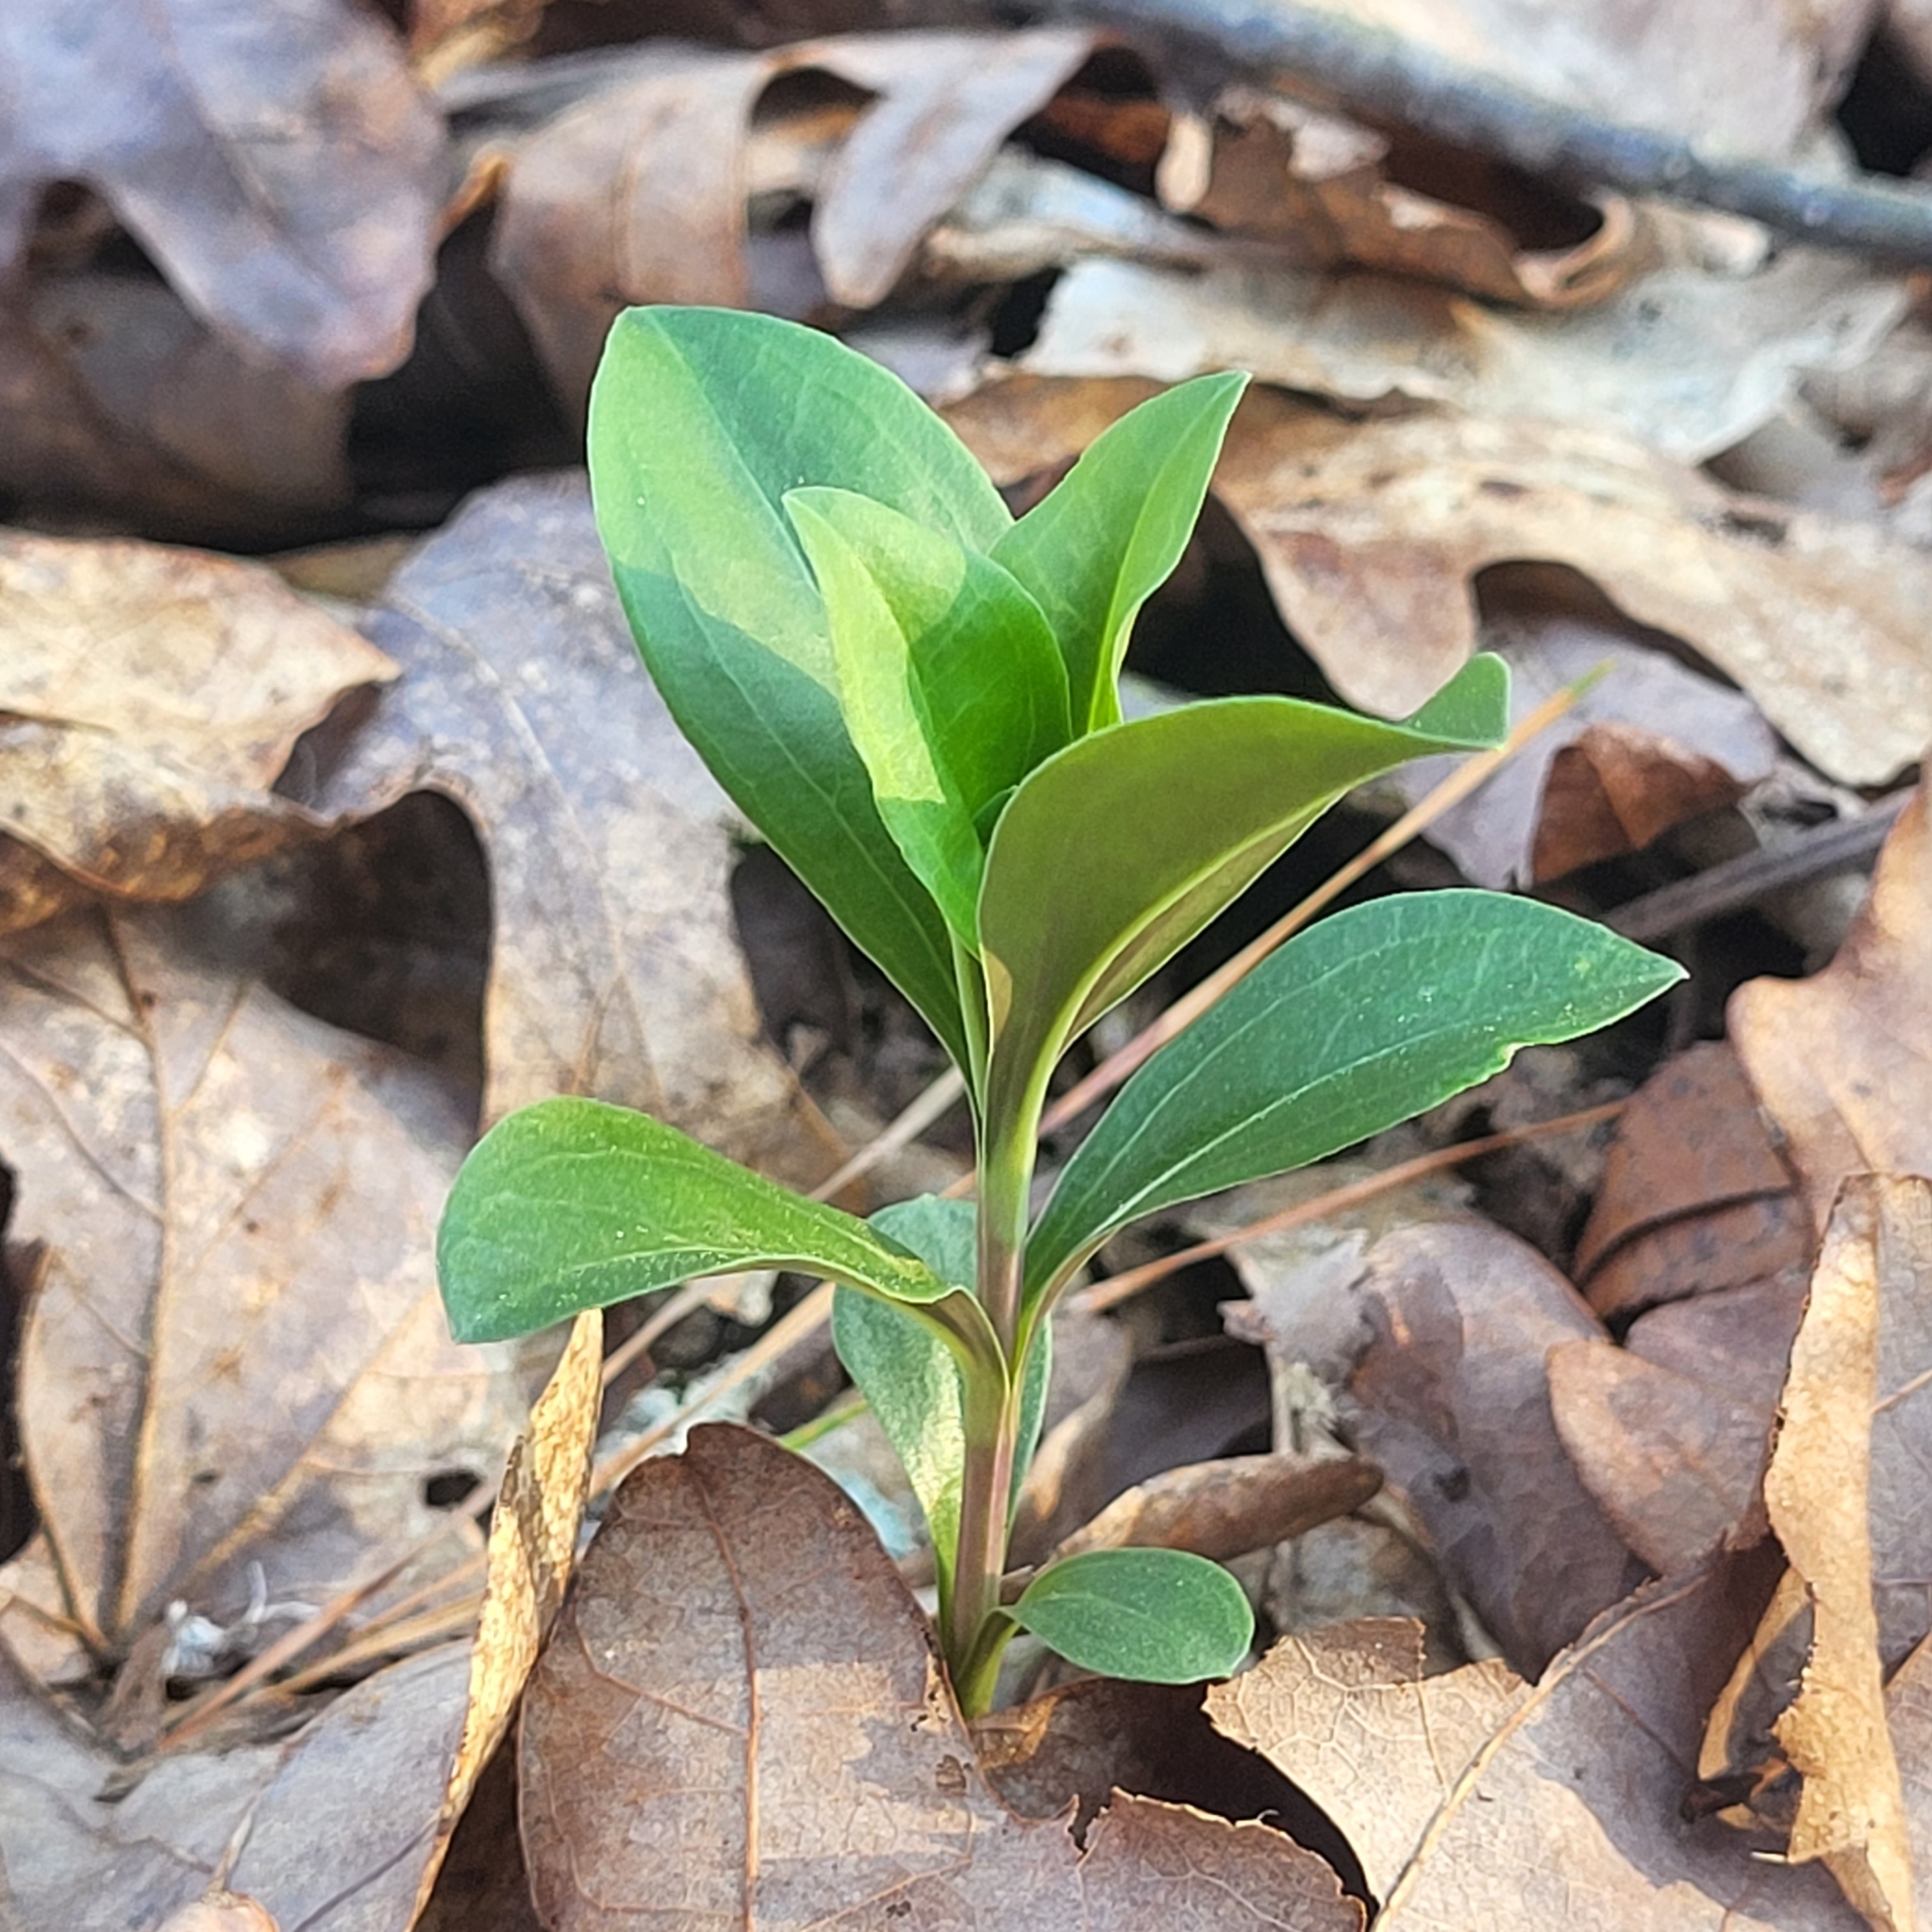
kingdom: Plantae
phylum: Tracheophyta
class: Magnoliopsida
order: Gentianales
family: Gentianaceae
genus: Gentiana
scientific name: Gentiana villosa
